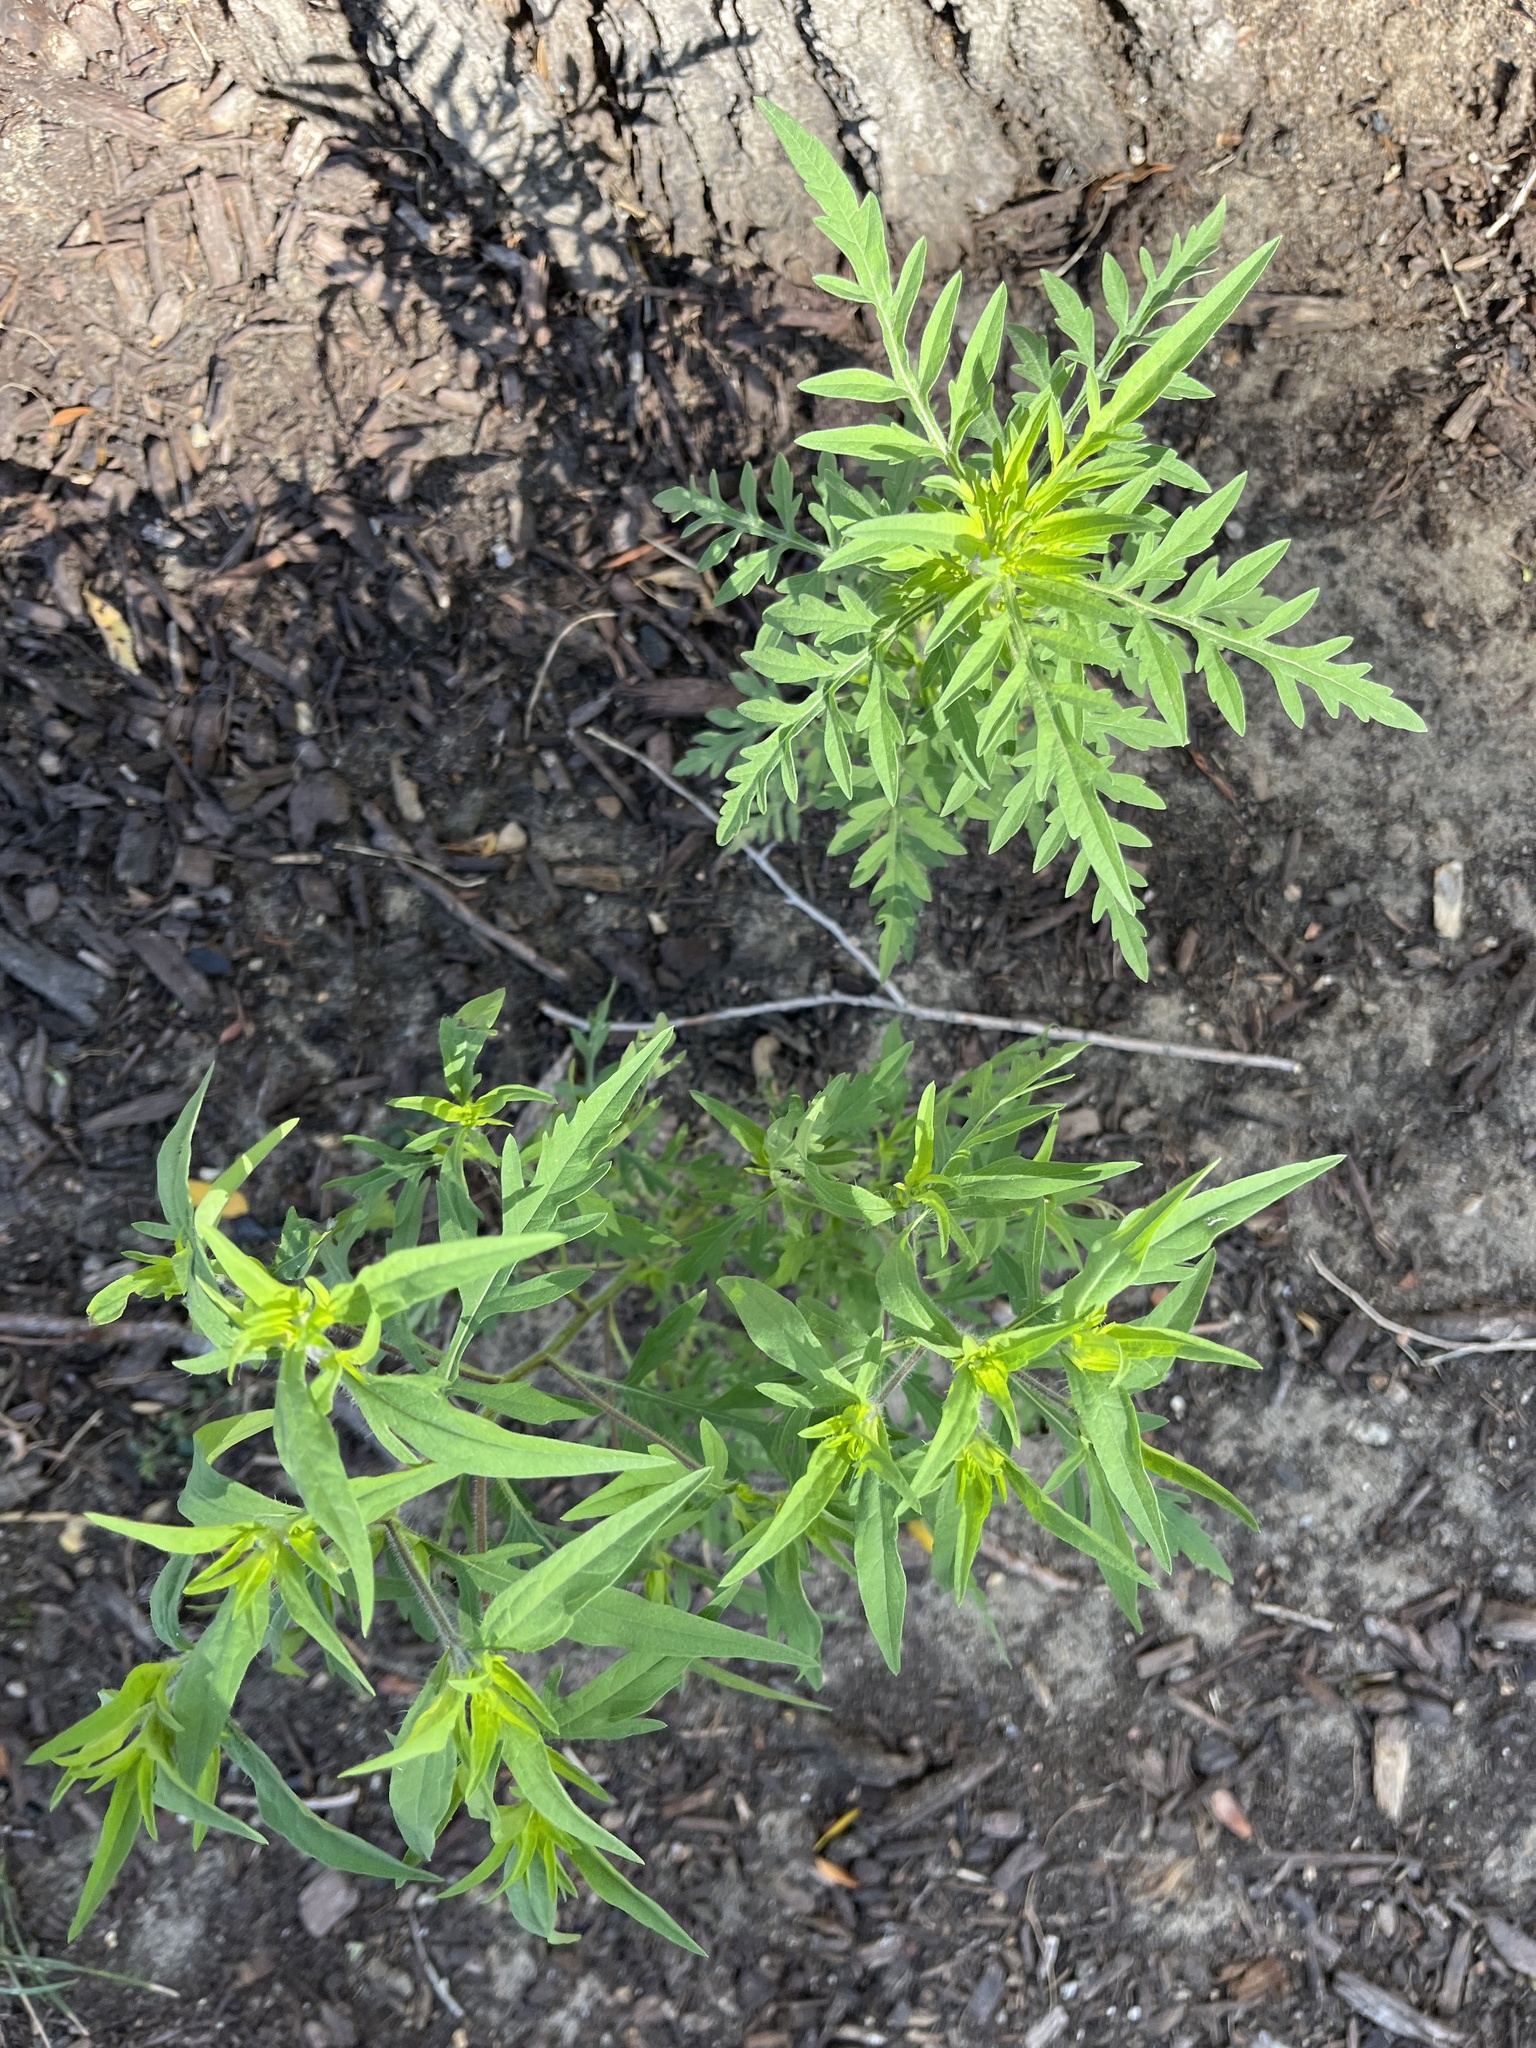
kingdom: Plantae
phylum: Tracheophyta
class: Magnoliopsida
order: Asterales
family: Asteraceae
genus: Ambrosia
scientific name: Ambrosia artemisiifolia
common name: Annual ragweed
